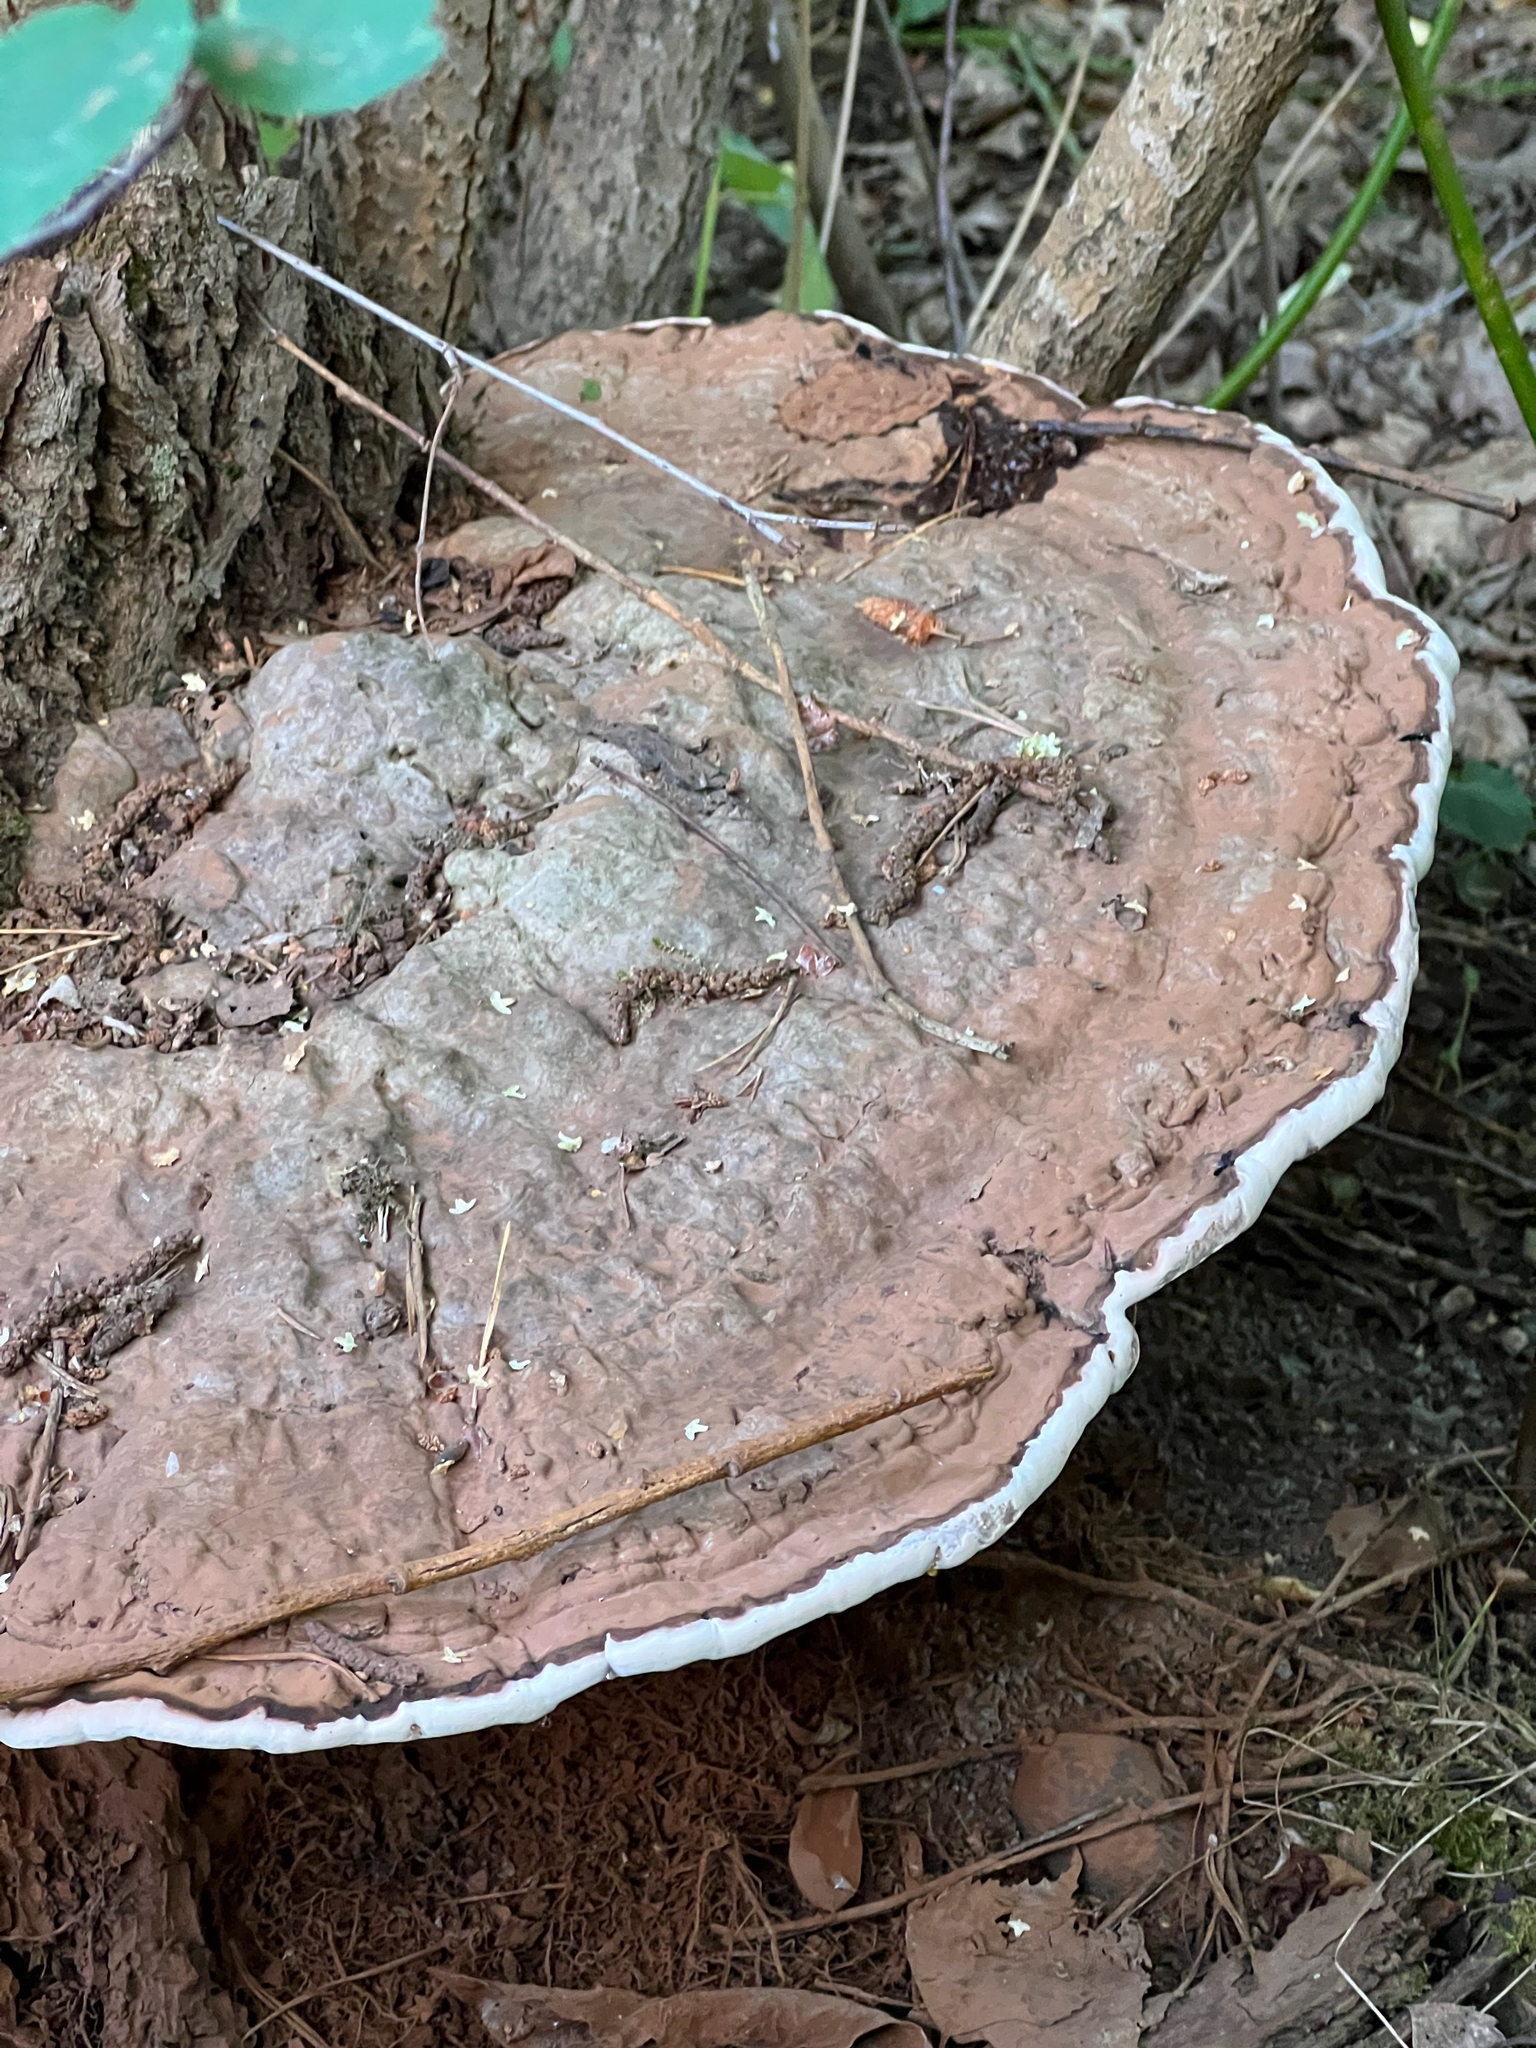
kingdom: Fungi
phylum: Basidiomycota
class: Agaricomycetes
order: Polyporales
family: Polyporaceae
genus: Ganoderma
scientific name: Ganoderma applanatum
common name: Artist's bracket
